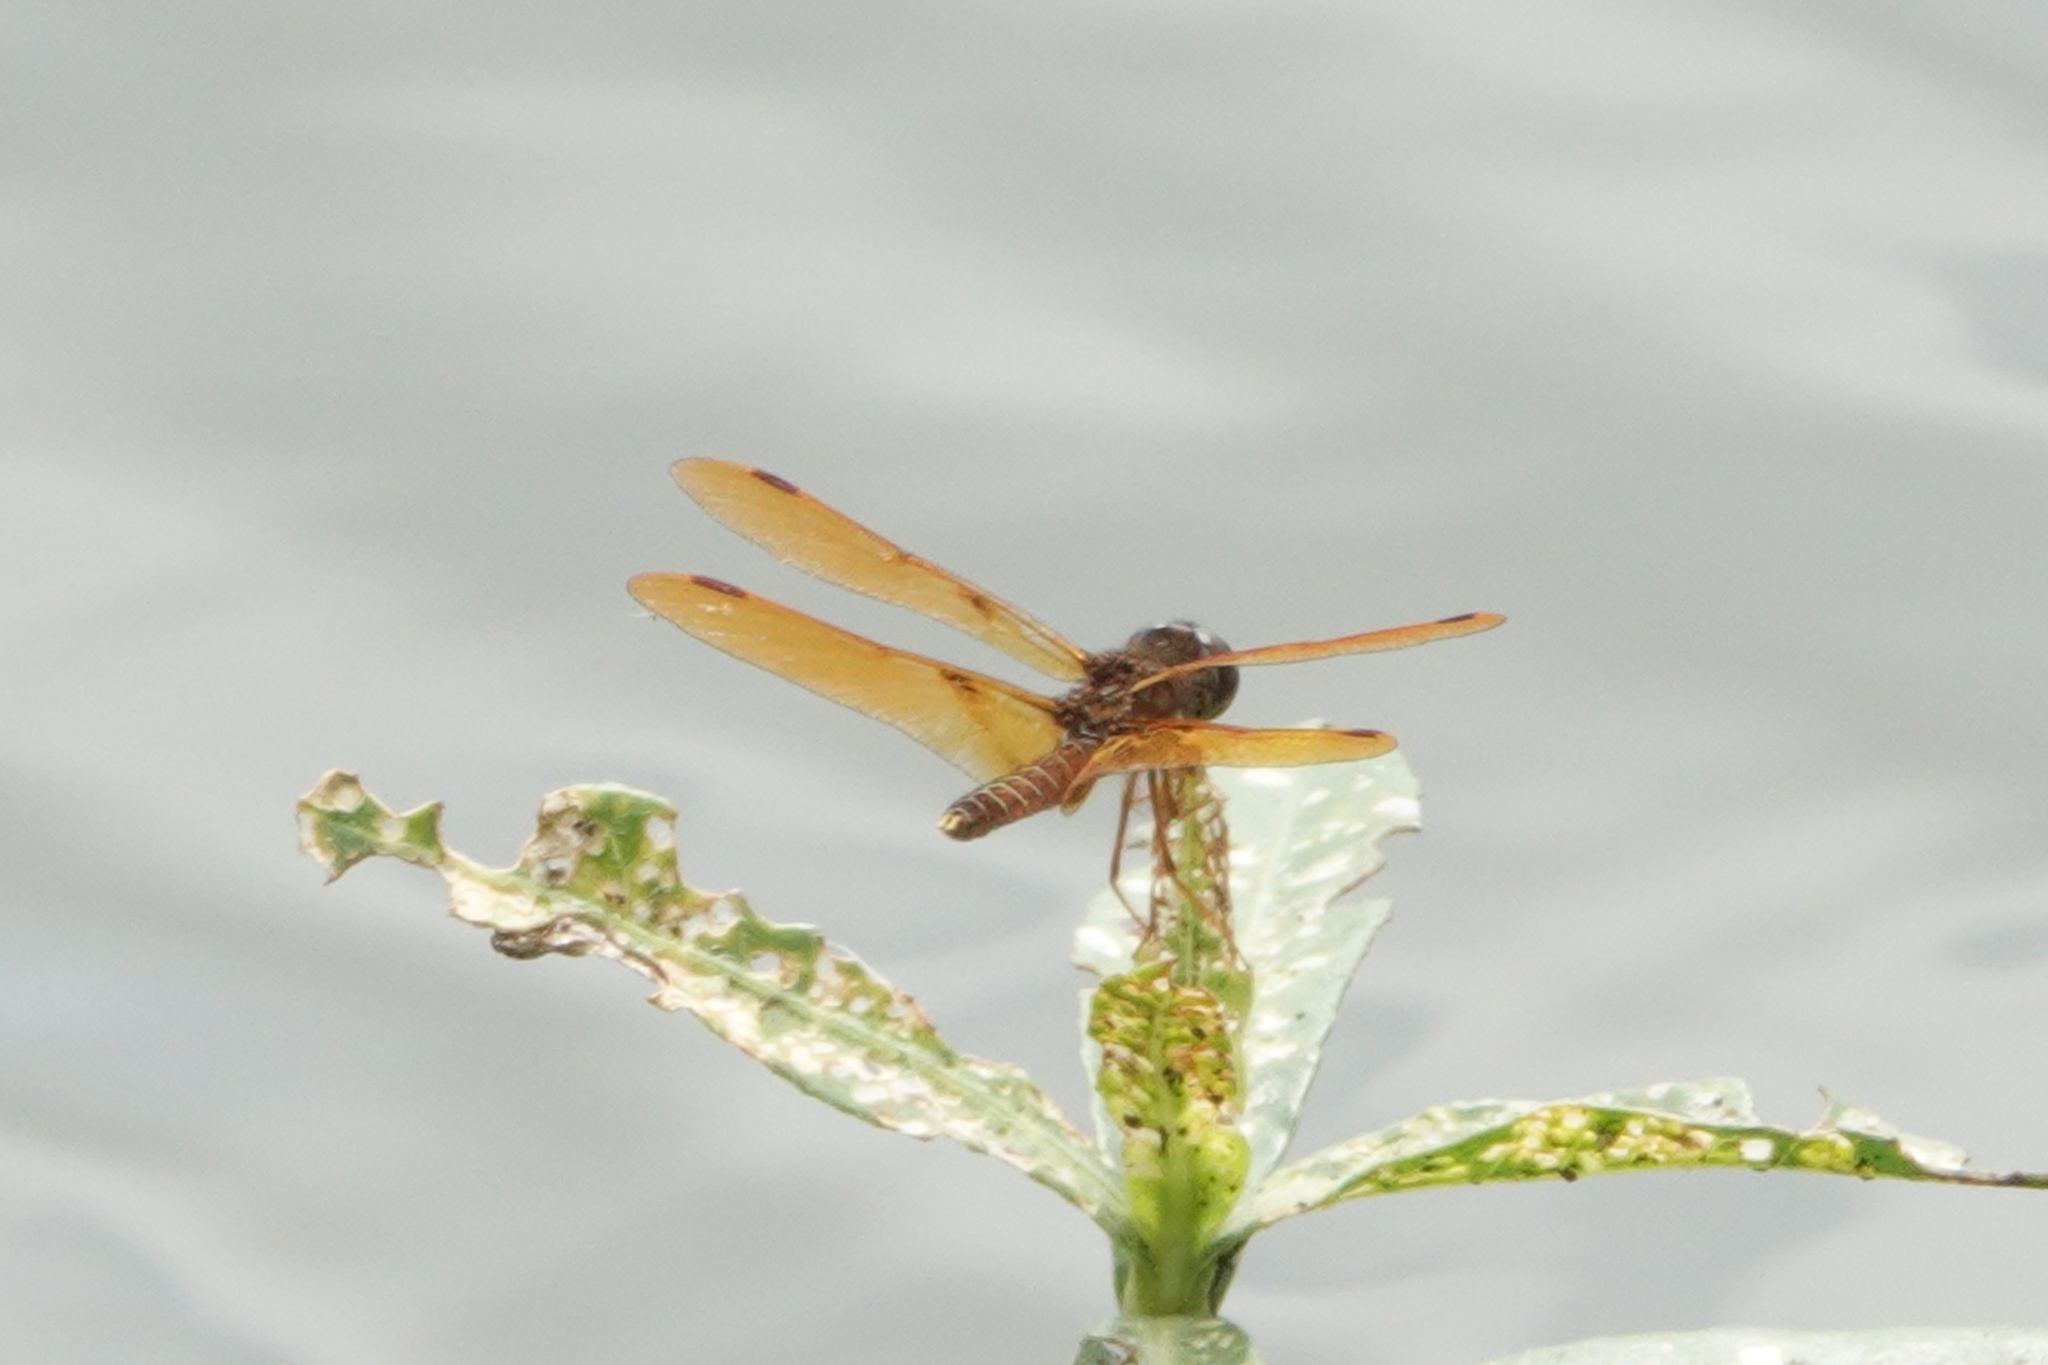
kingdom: Animalia
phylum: Arthropoda
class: Insecta
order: Odonata
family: Libellulidae
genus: Perithemis
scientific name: Perithemis tenera
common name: Eastern amberwing
